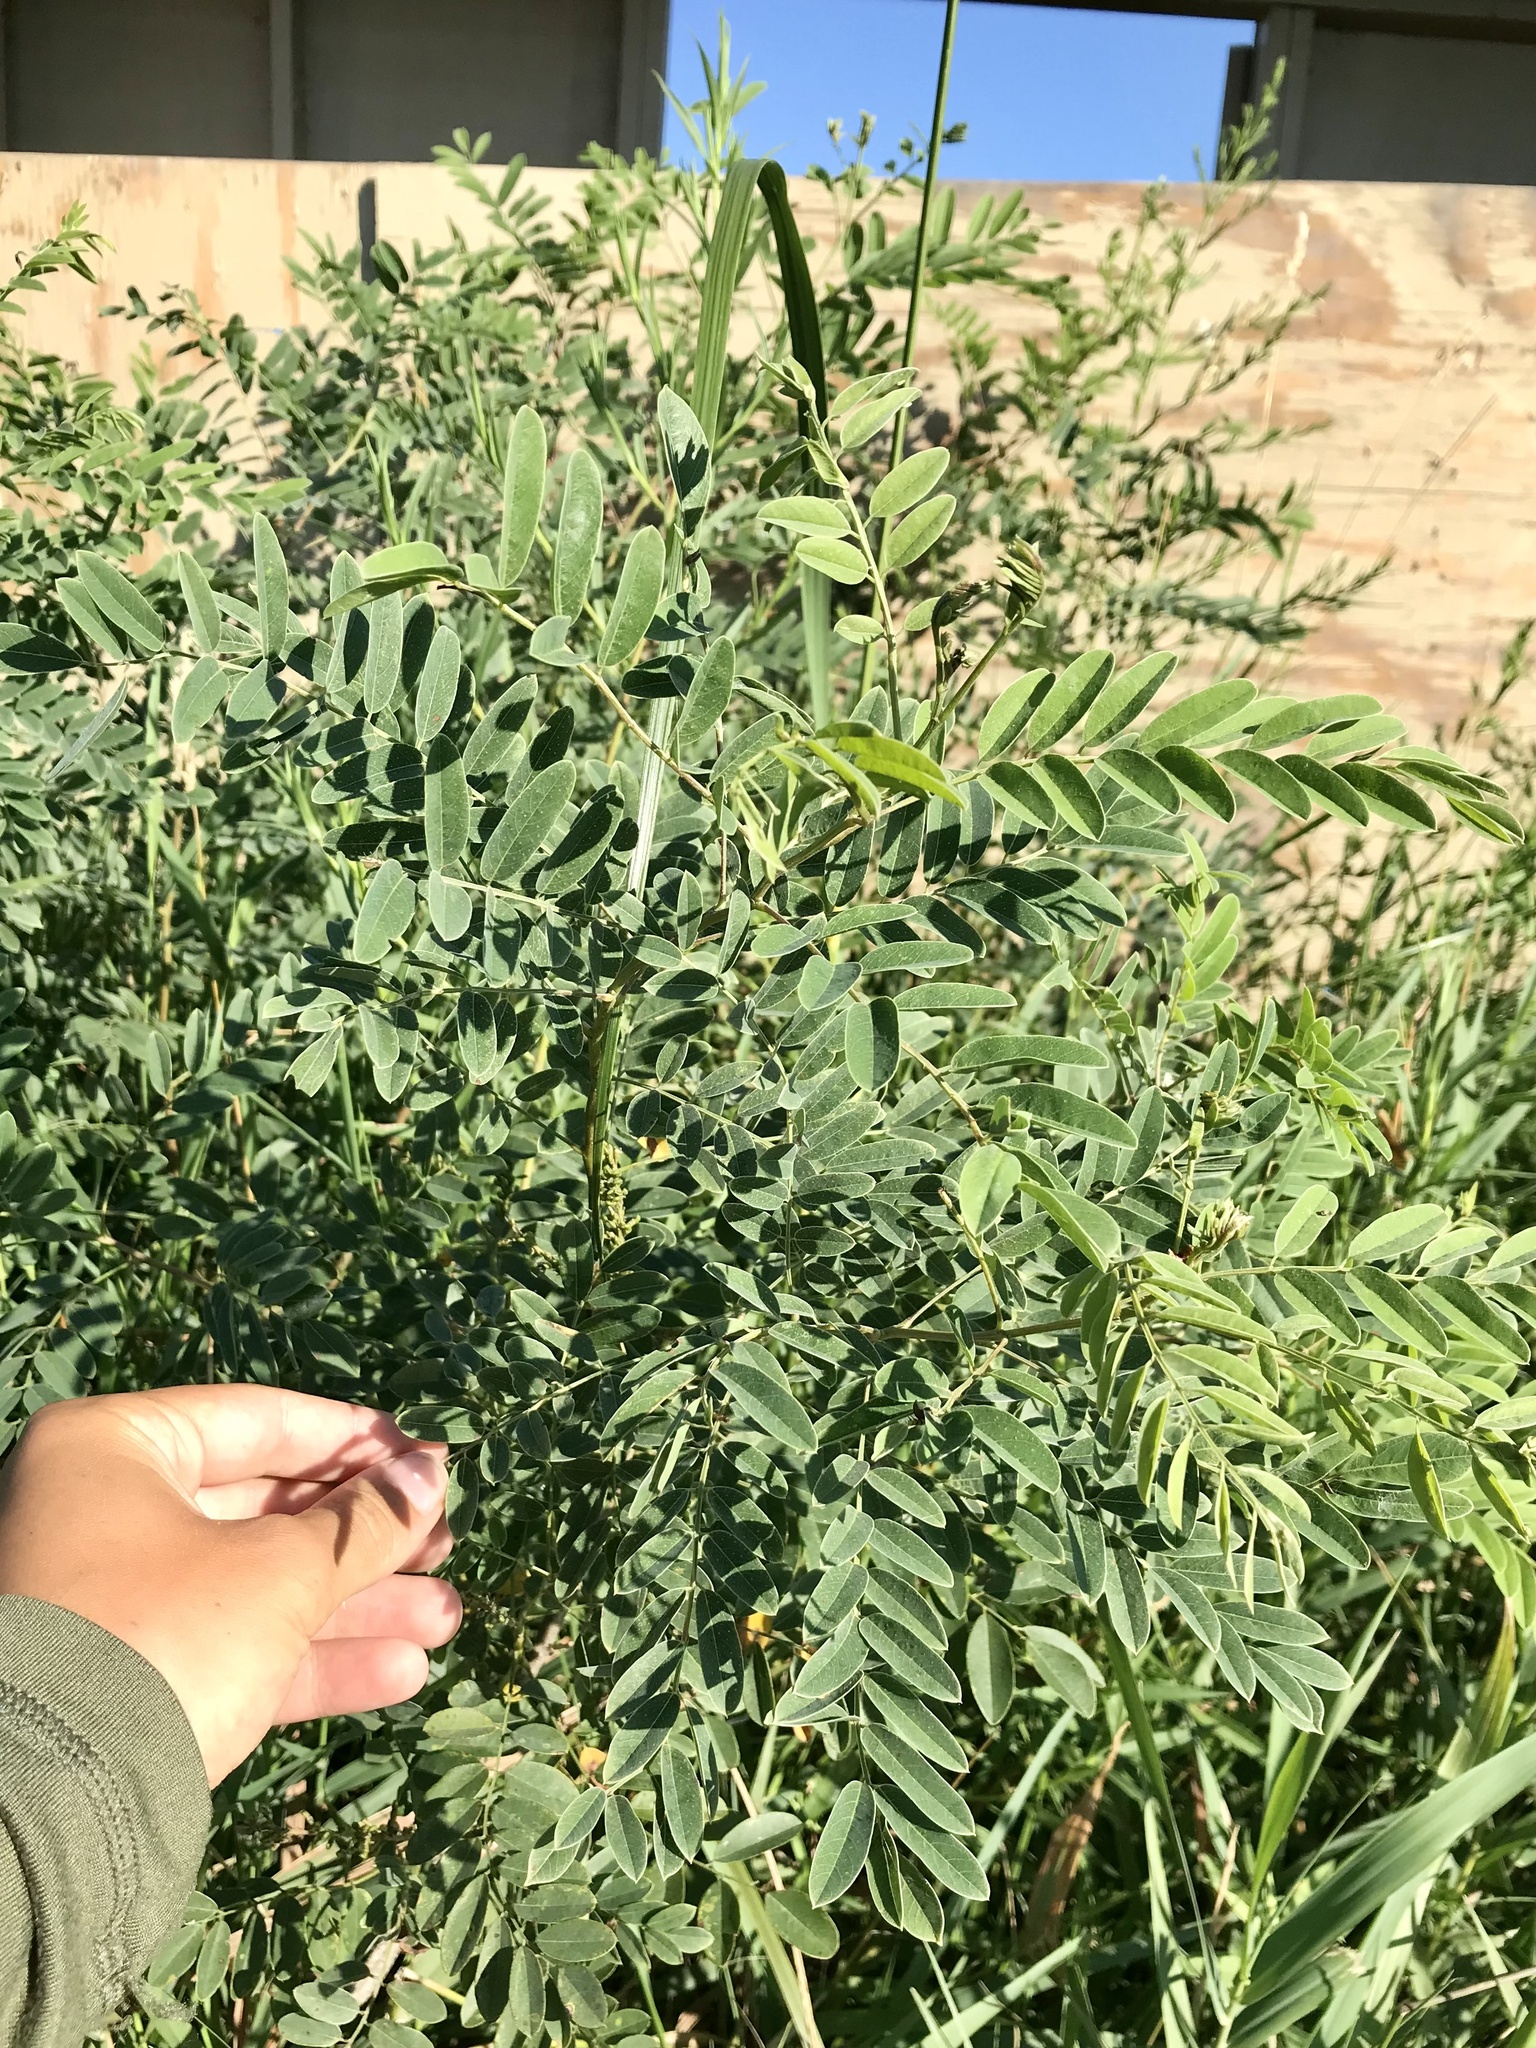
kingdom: Plantae
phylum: Tracheophyta
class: Magnoliopsida
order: Fabales
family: Fabaceae
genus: Amorpha
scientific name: Amorpha fruticosa
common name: False indigo
